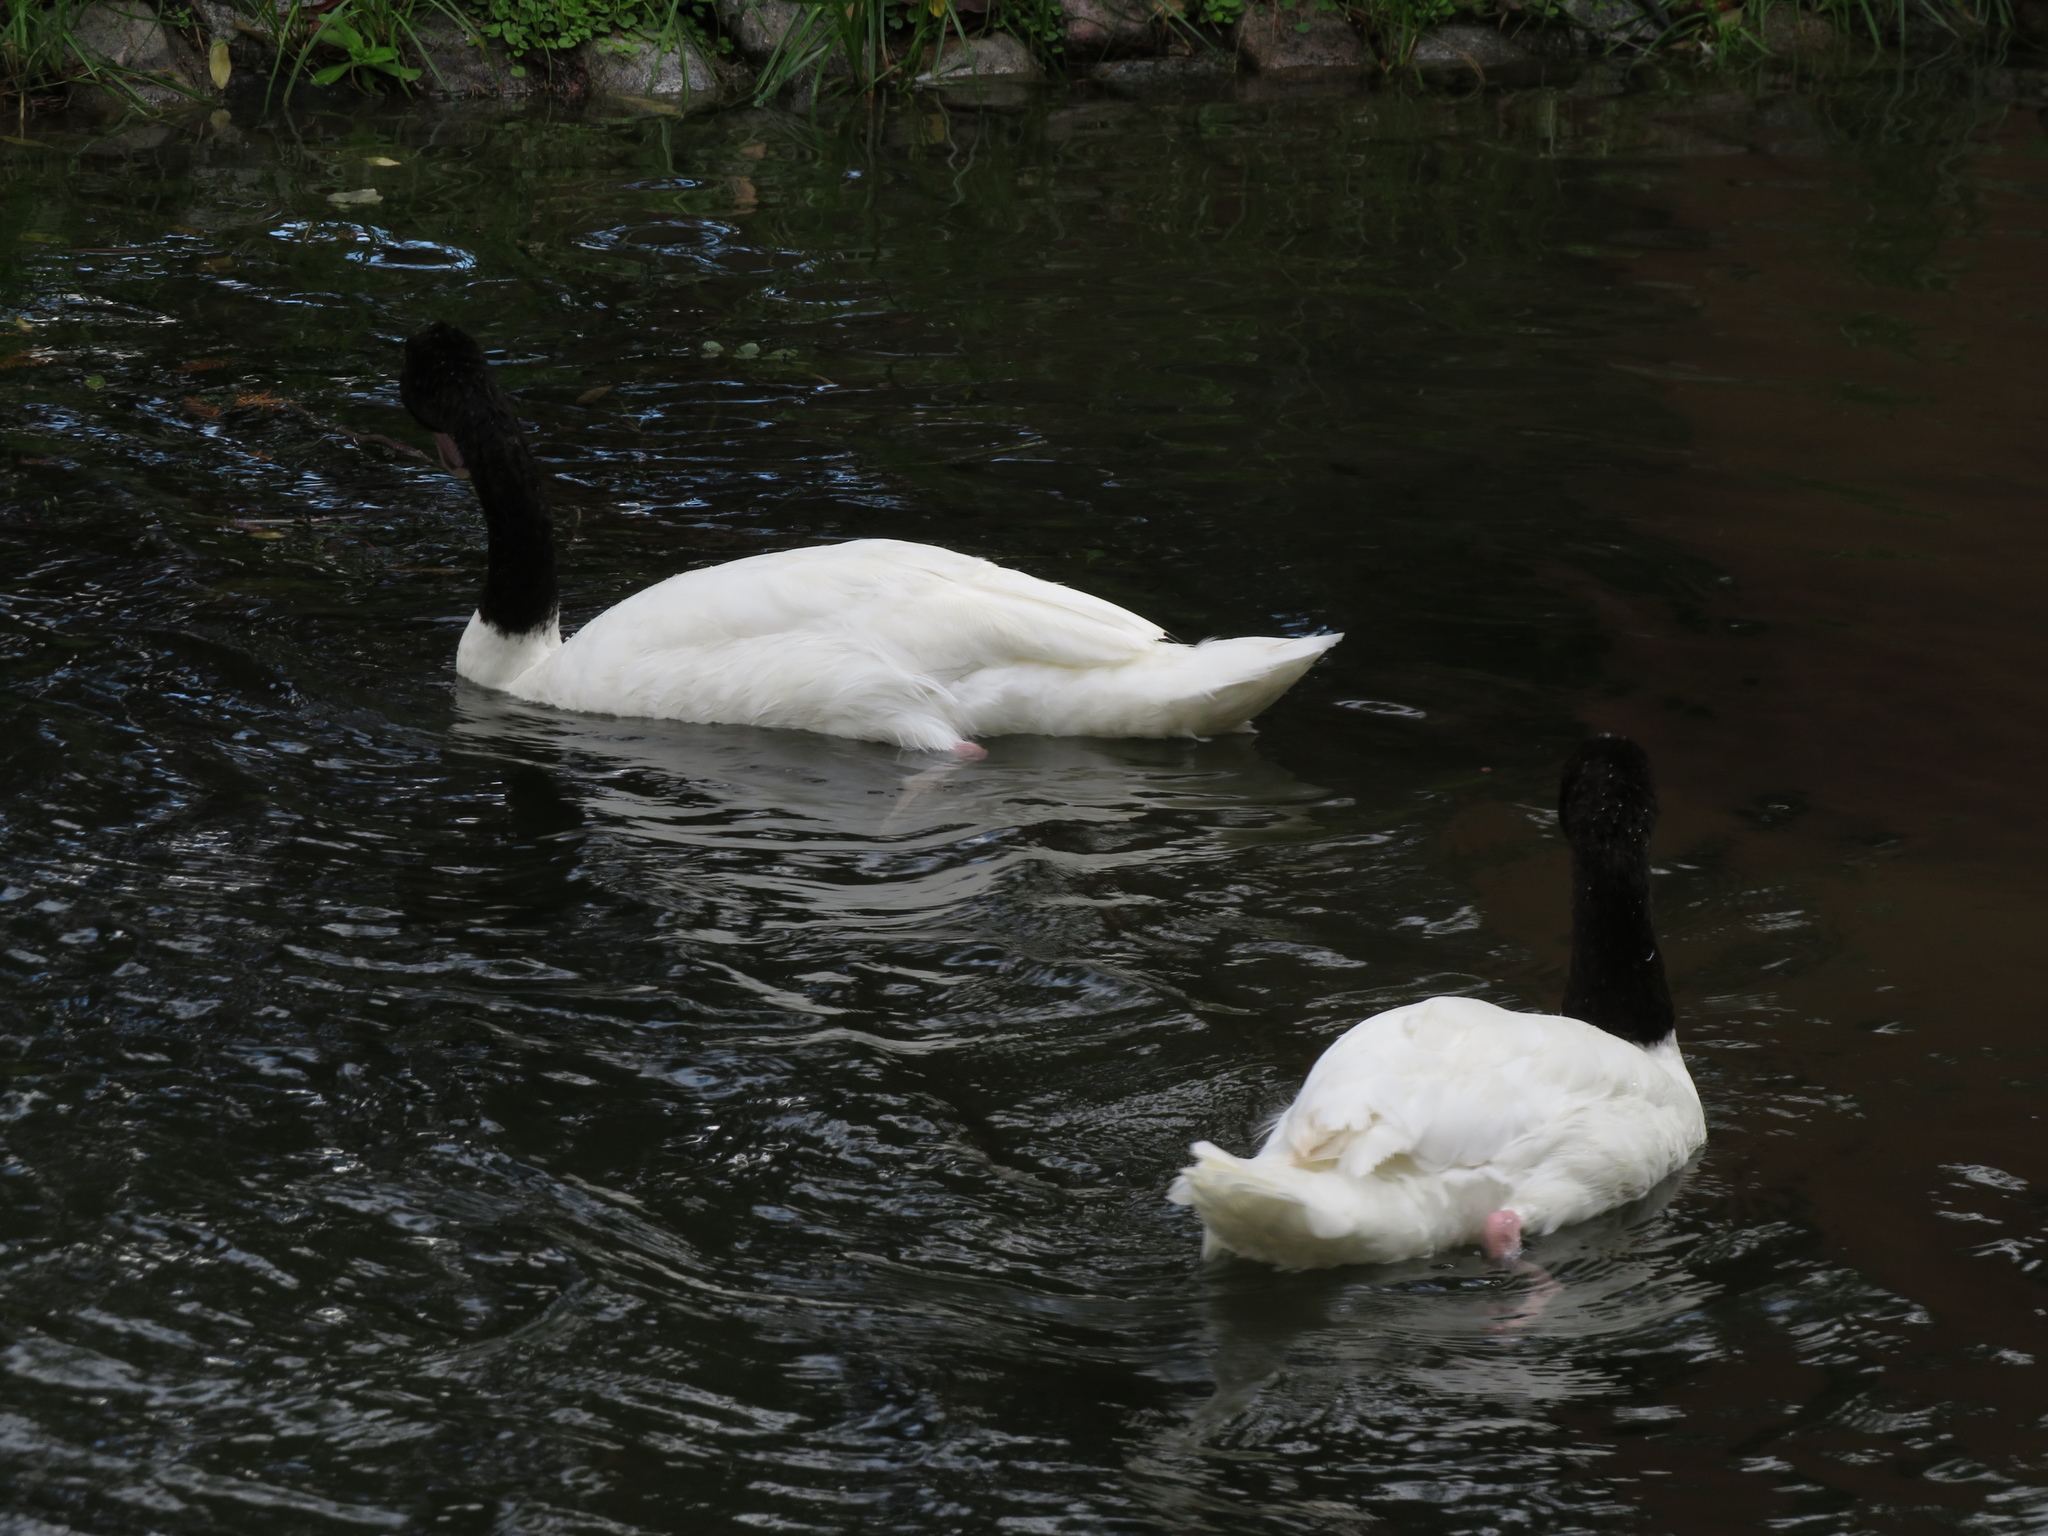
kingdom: Animalia
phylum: Chordata
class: Aves
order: Anseriformes
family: Anatidae
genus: Cygnus
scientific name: Cygnus melancoryphus
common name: Black-necked swan
